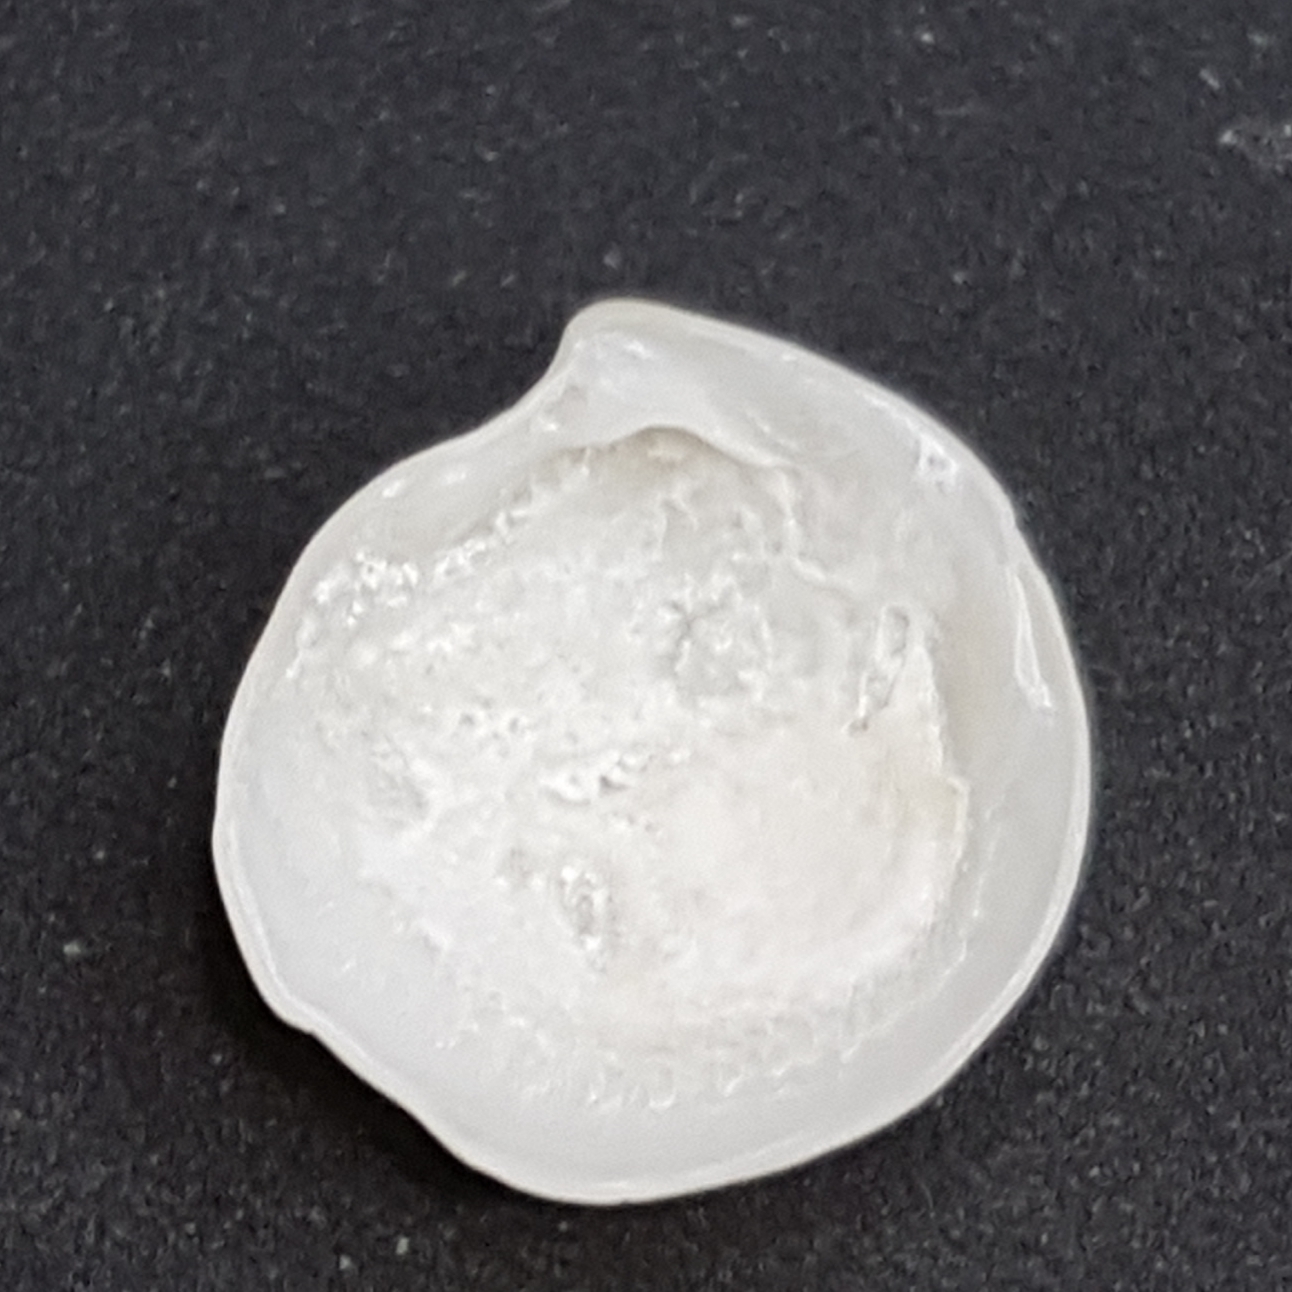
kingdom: Animalia
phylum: Mollusca
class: Bivalvia
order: Lucinida
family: Lucinidae
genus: Lucinella
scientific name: Lucinella divaricata
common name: Divaricate lucine
